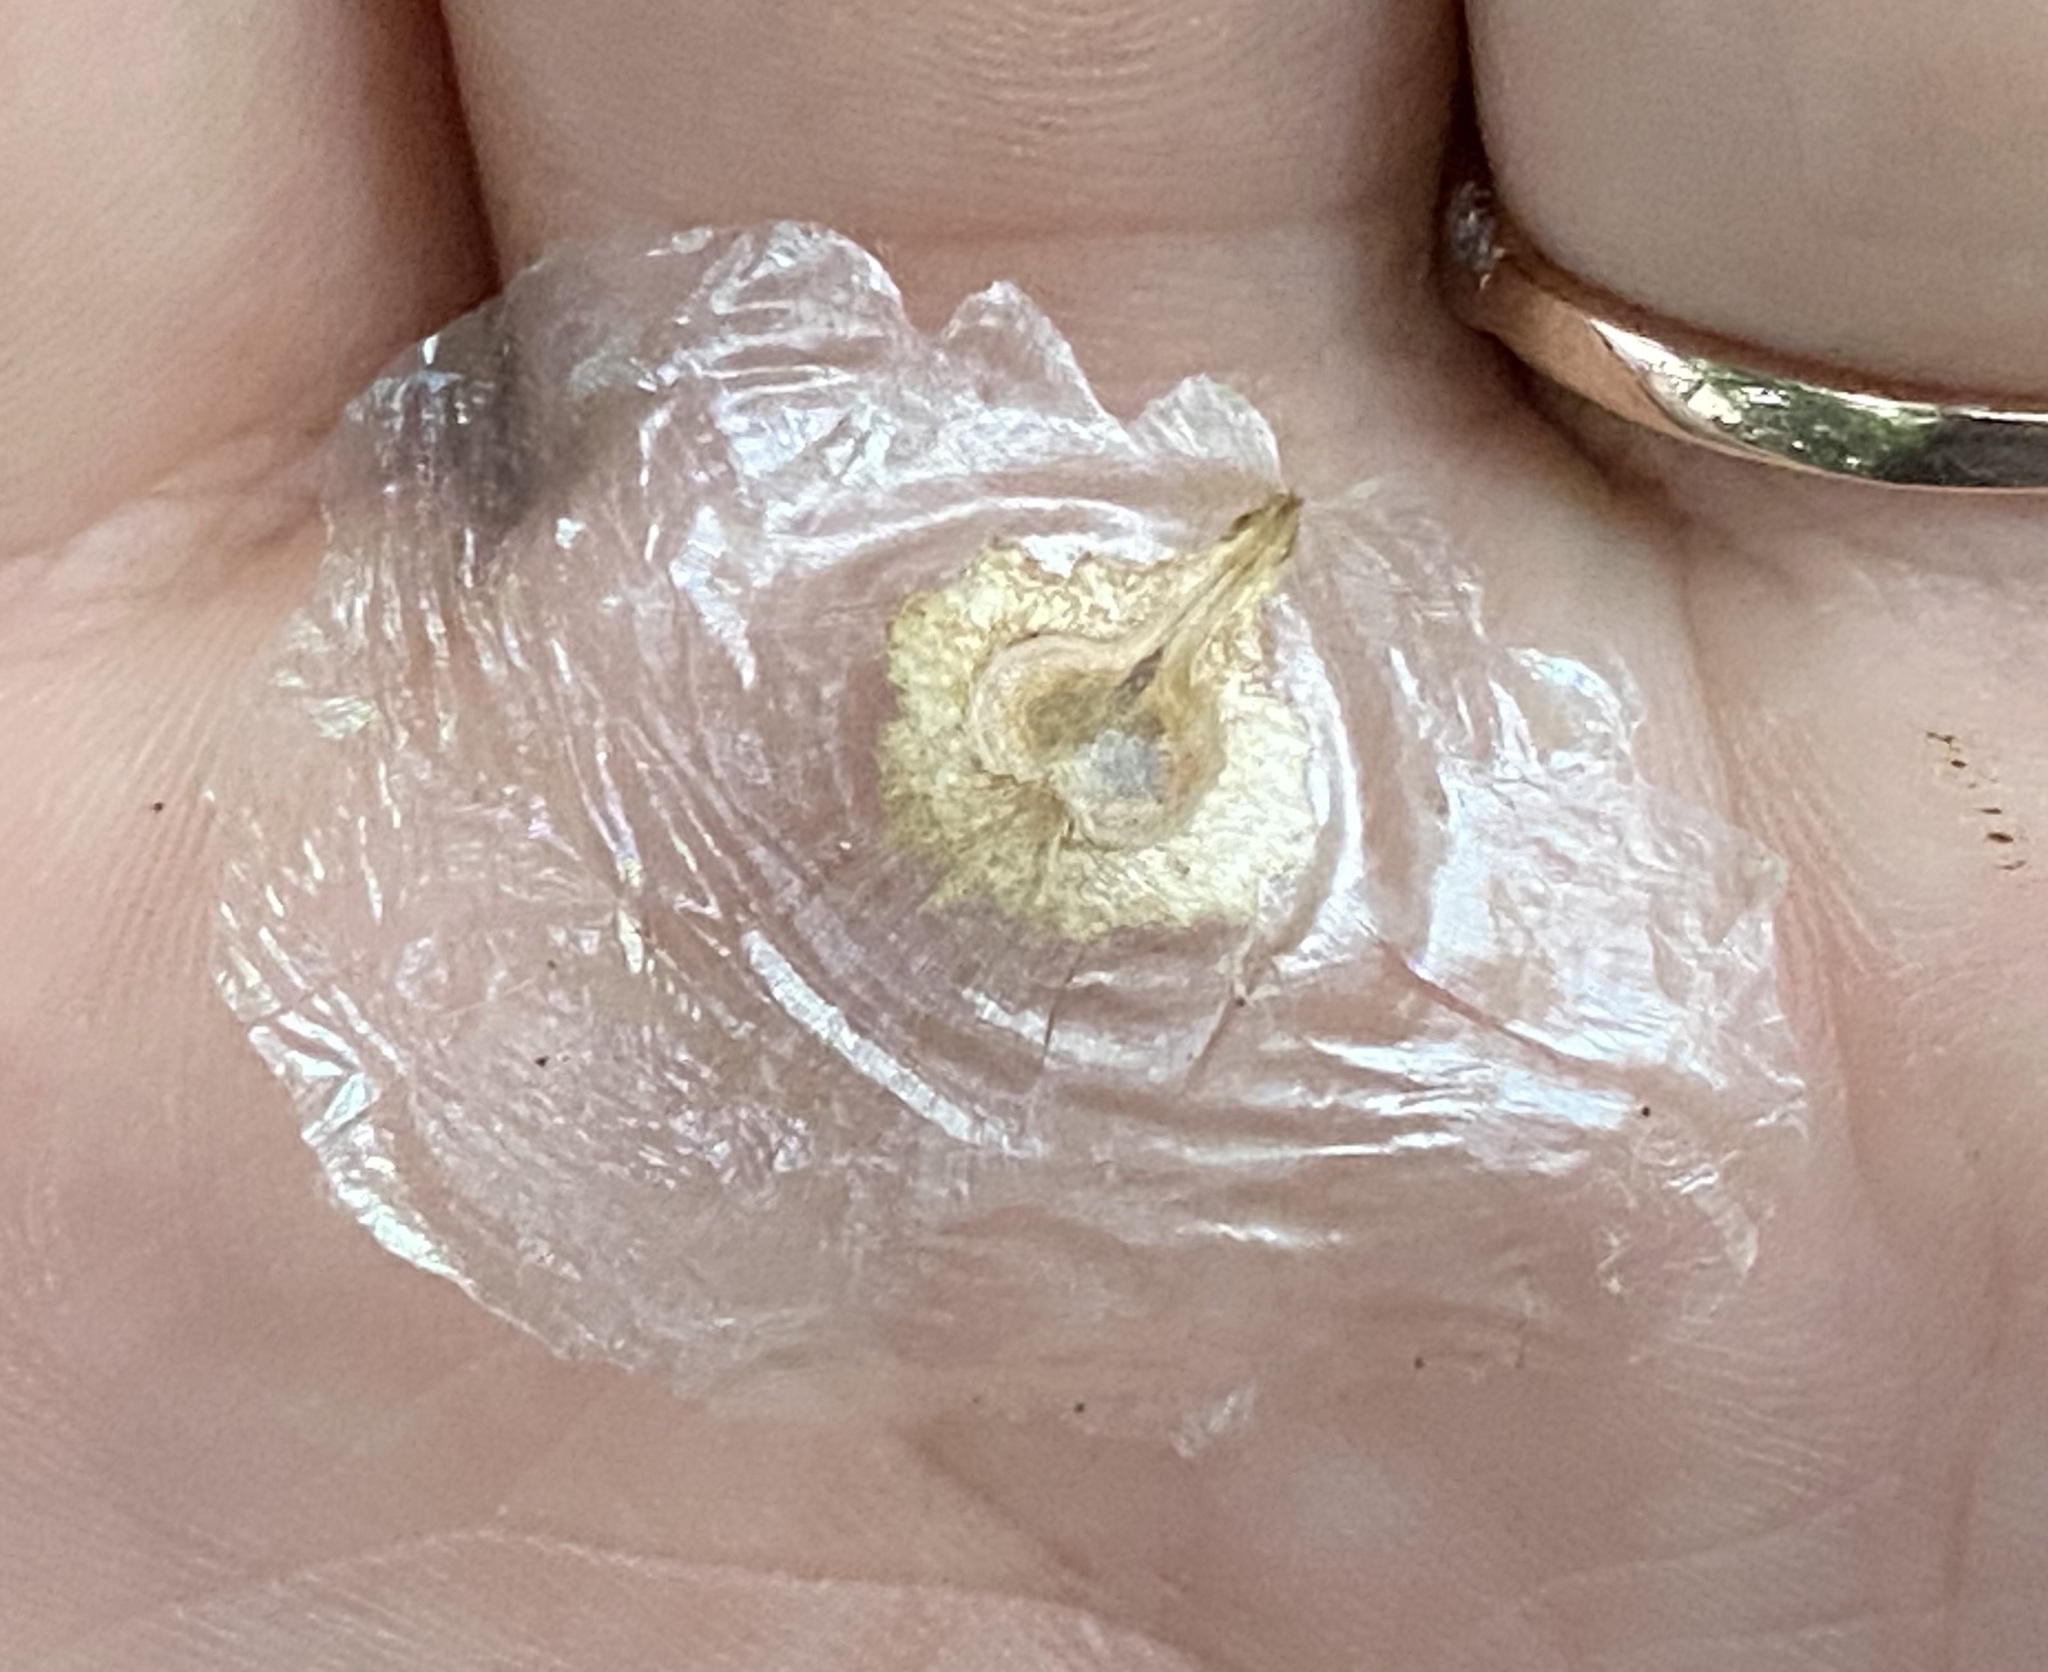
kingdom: Plantae
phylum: Tracheophyta
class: Magnoliopsida
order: Lamiales
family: Bignoniaceae
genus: Spathodea
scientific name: Spathodea campanulata
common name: African tuliptree
